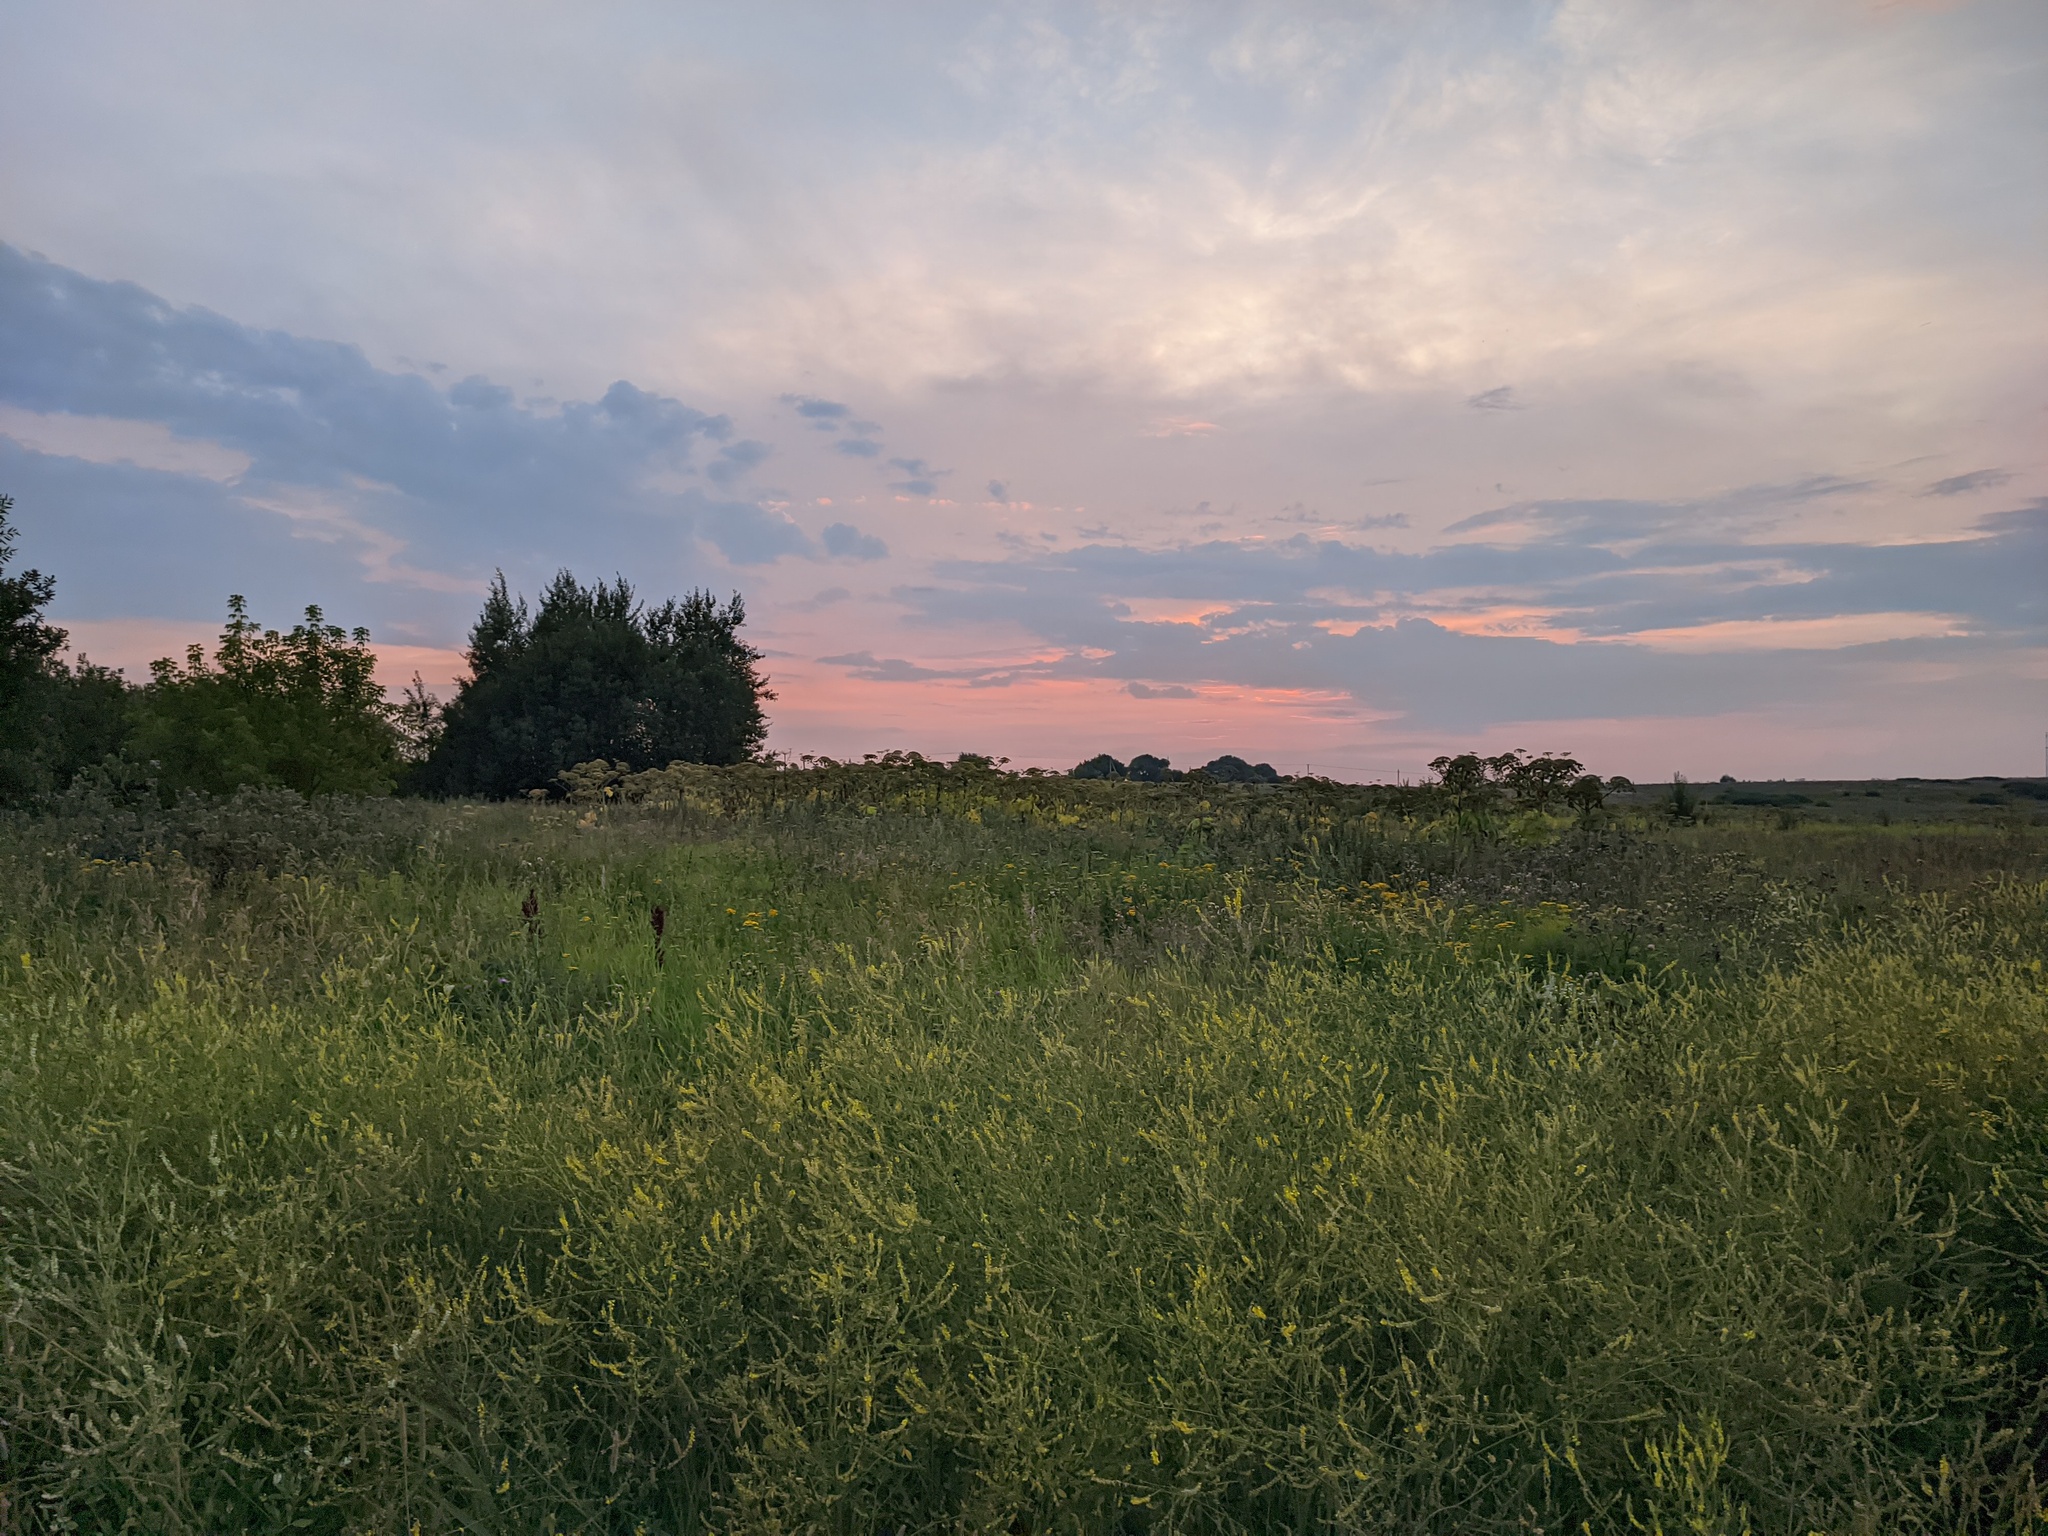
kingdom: Plantae
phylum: Tracheophyta
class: Magnoliopsida
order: Apiales
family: Apiaceae
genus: Heracleum
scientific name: Heracleum sosnowskyi
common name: Sosnowsky's hogweed
